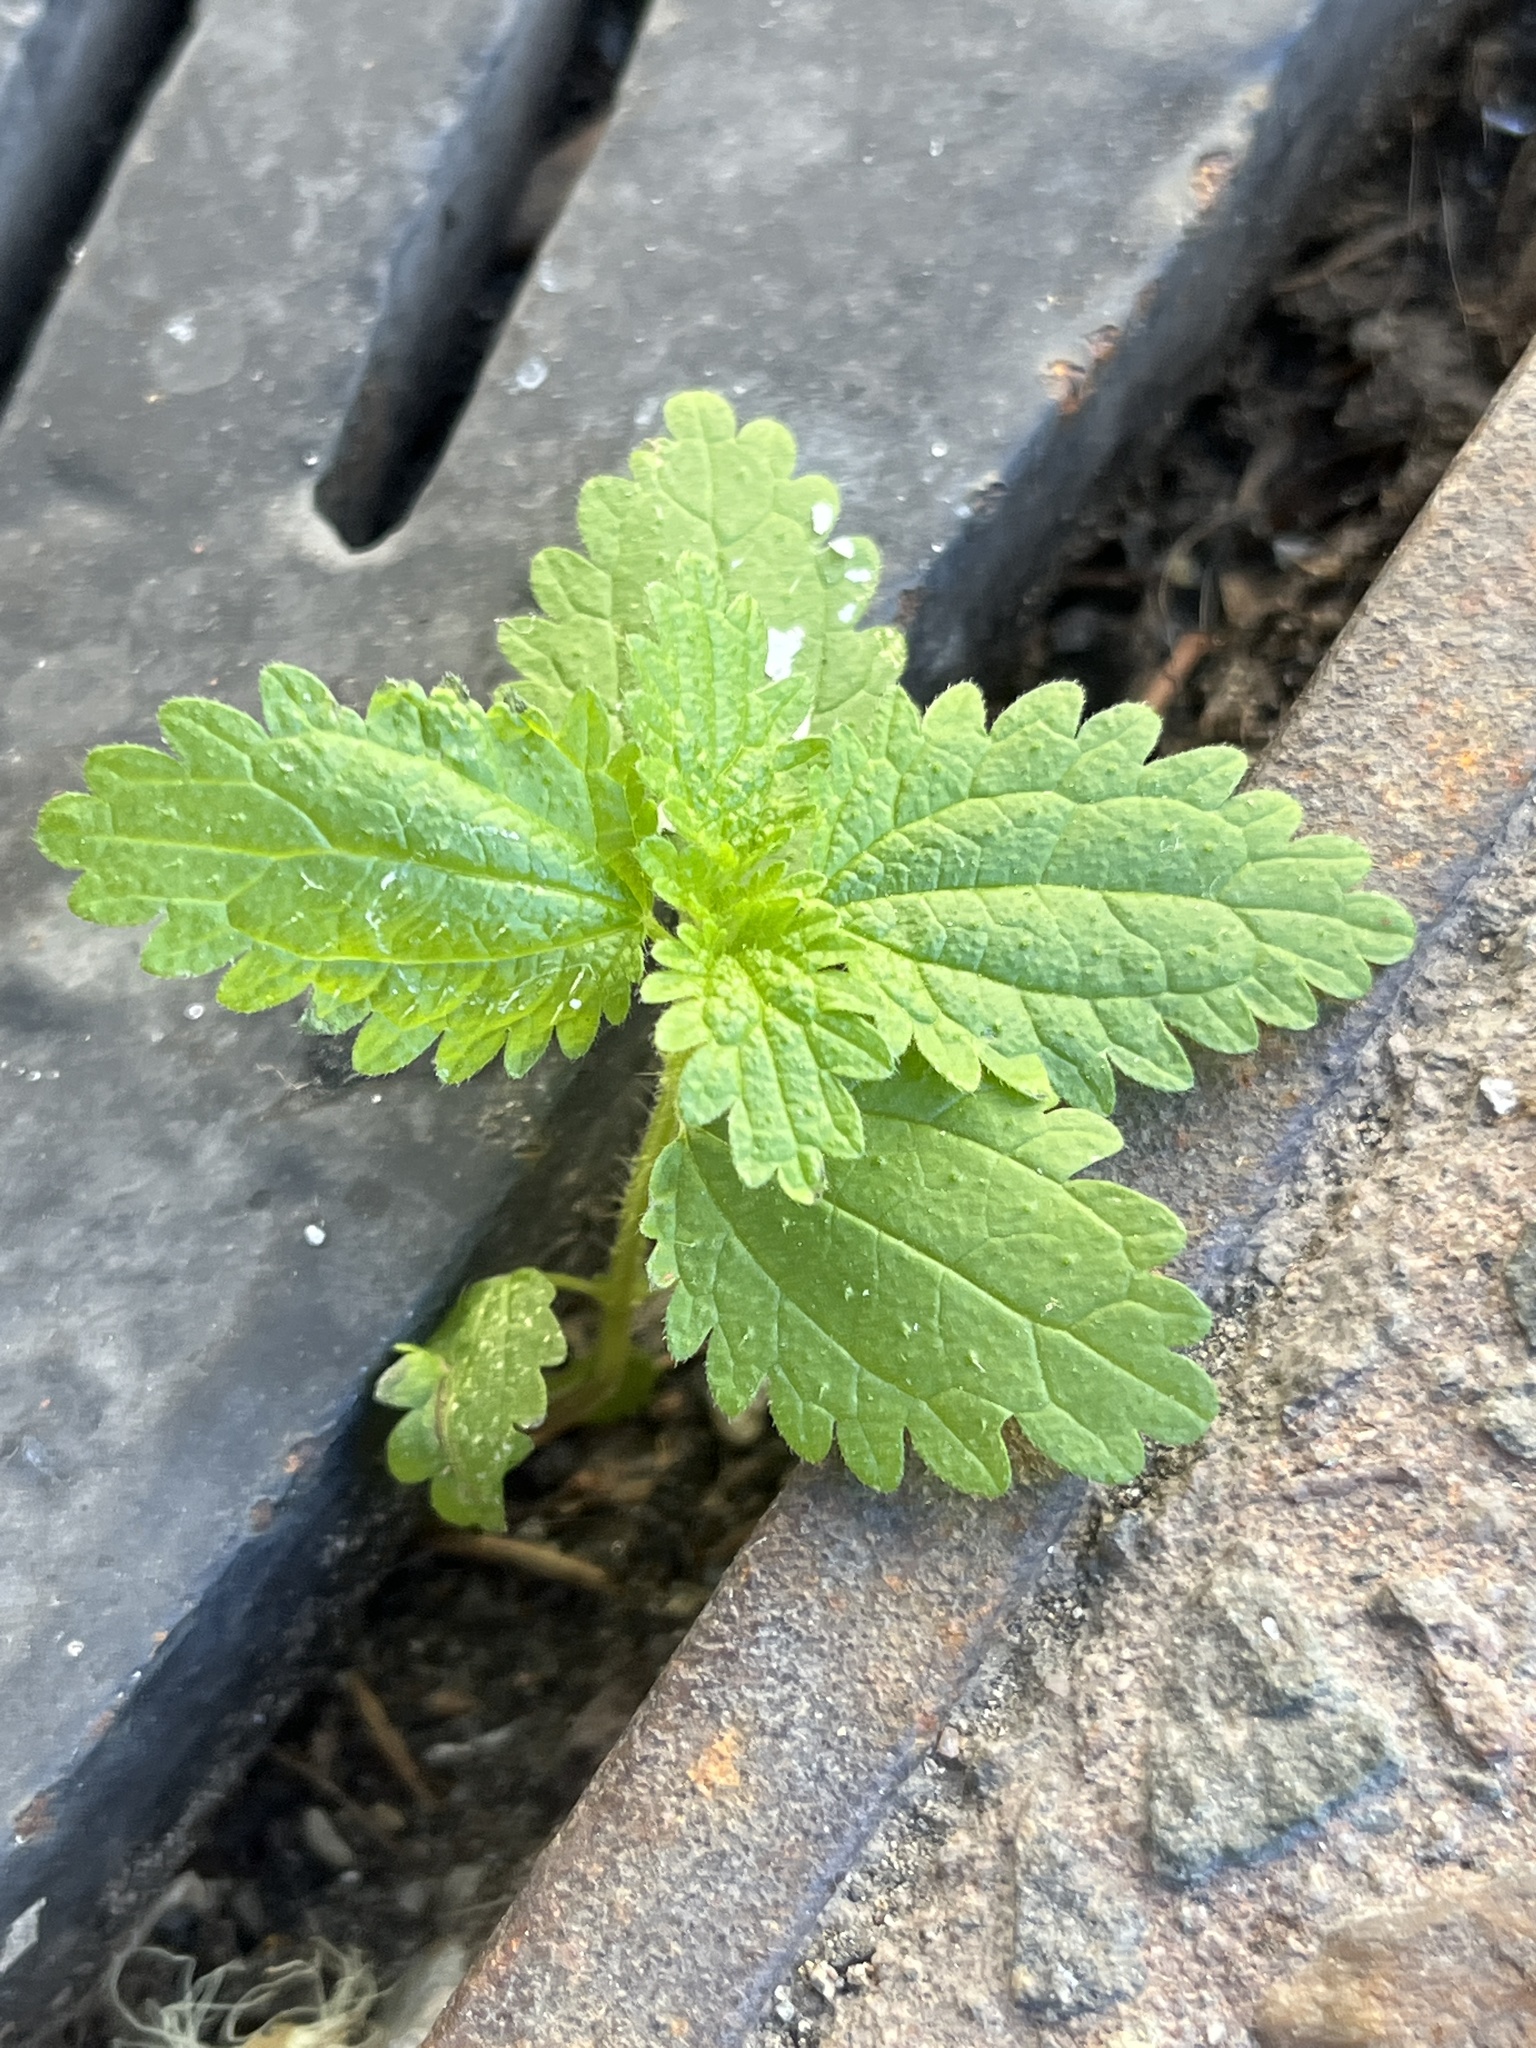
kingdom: Plantae
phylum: Tracheophyta
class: Magnoliopsida
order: Rosales
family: Urticaceae
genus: Urtica
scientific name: Urtica urens
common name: Dwarf nettle
